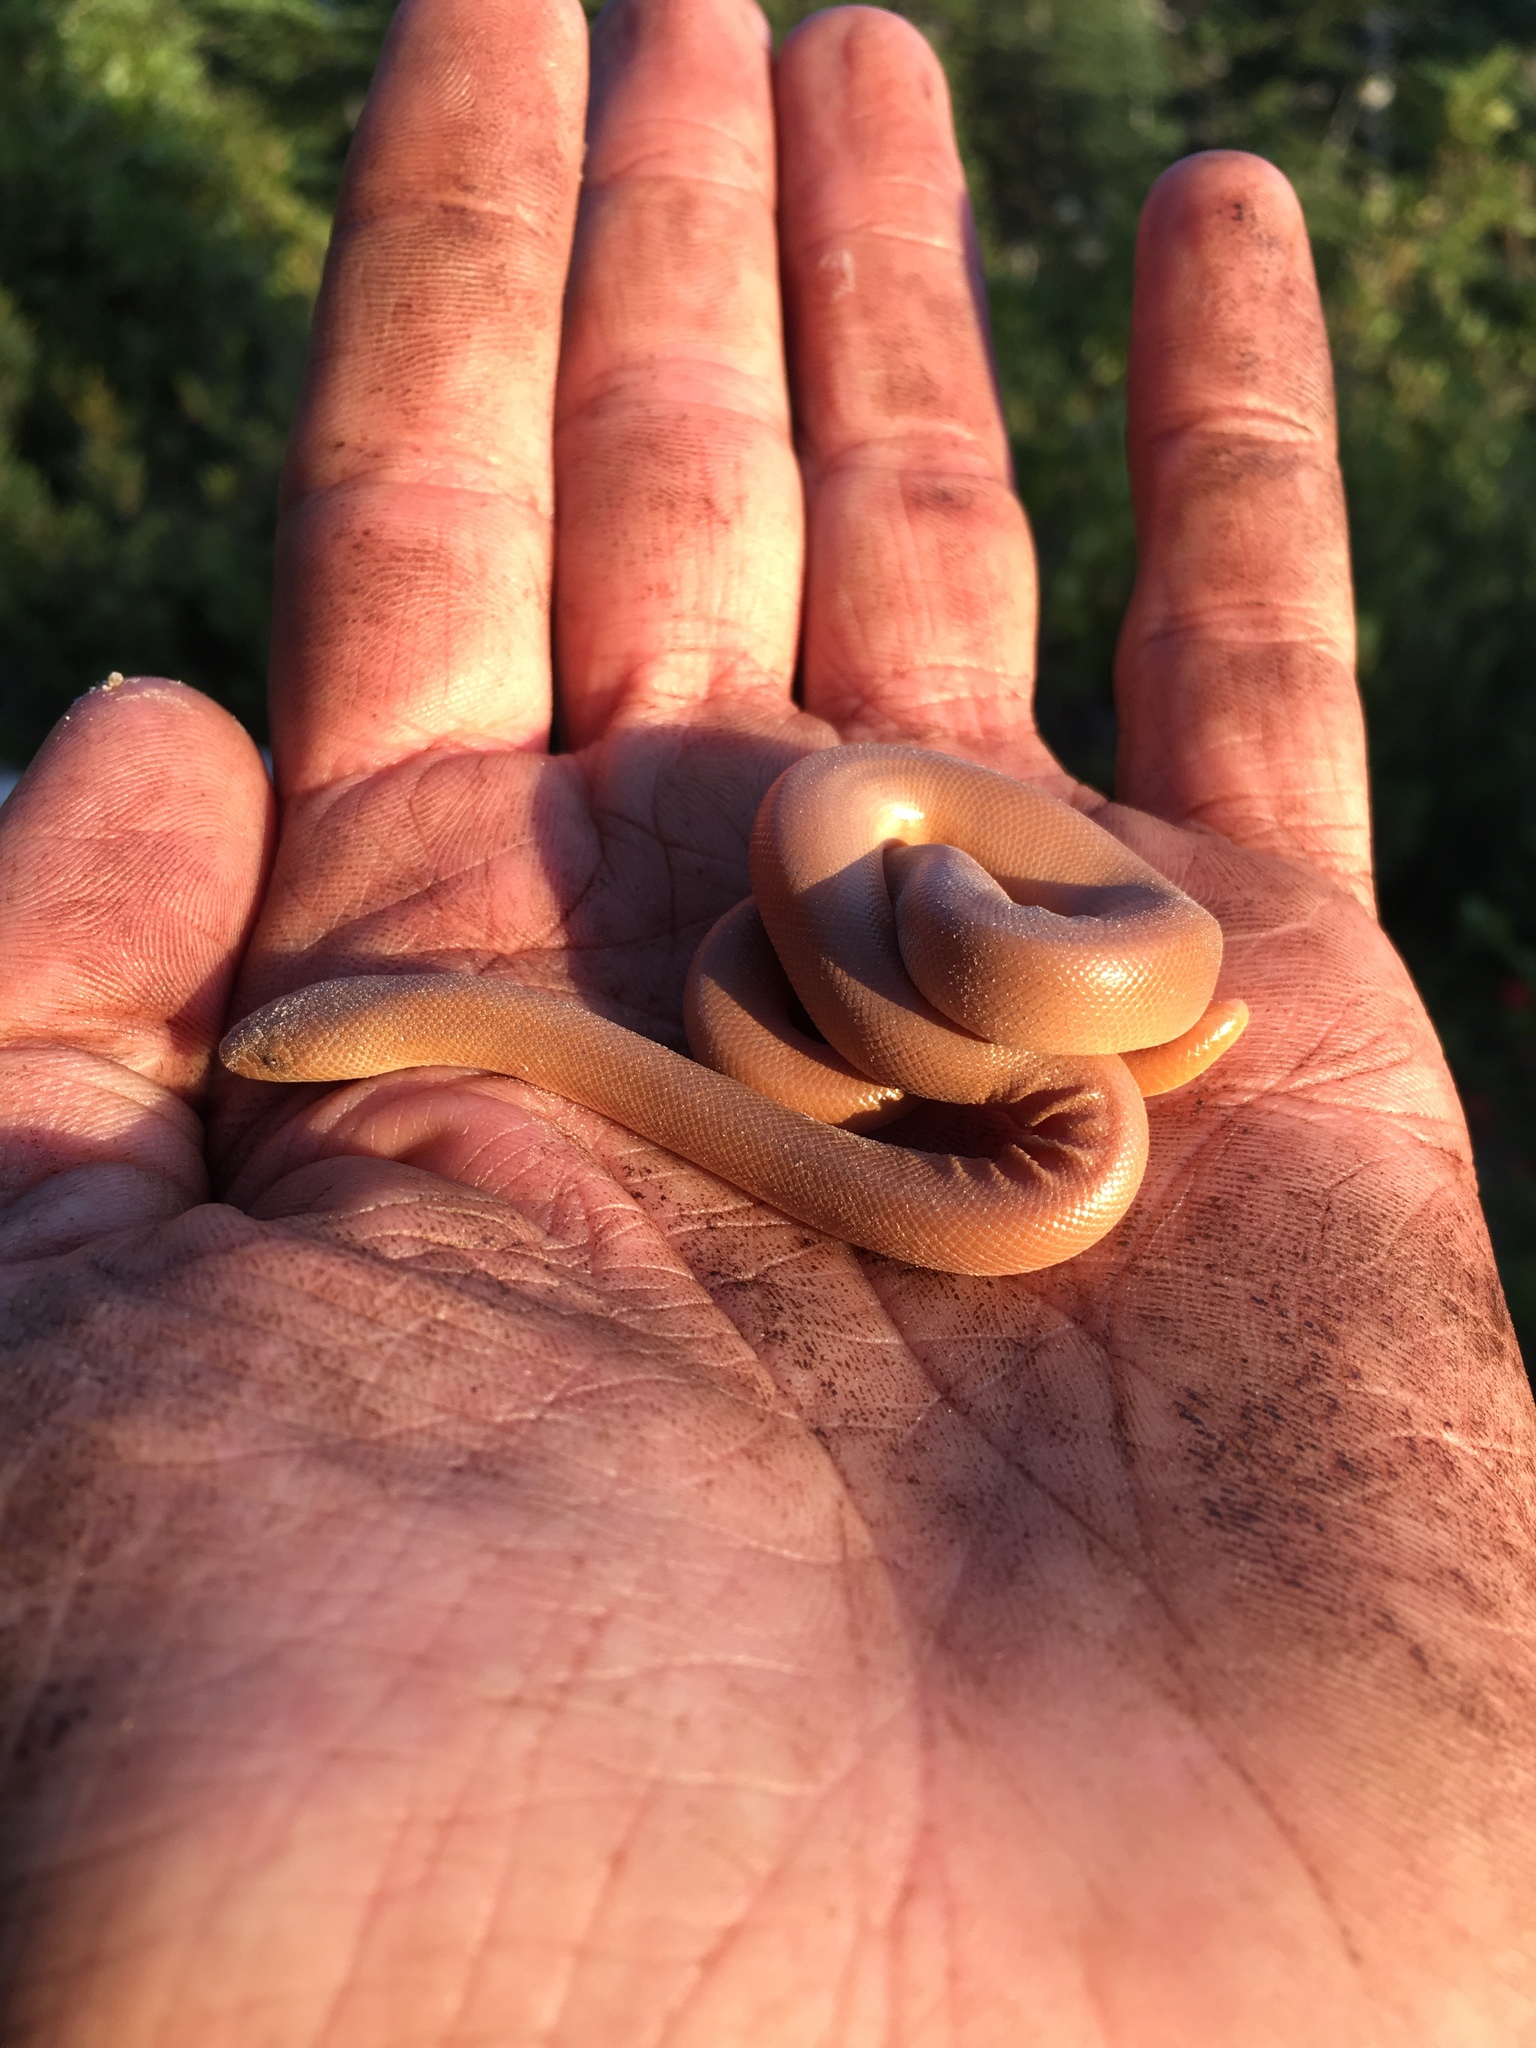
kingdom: Animalia
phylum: Chordata
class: Squamata
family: Boidae
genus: Charina
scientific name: Charina bottae
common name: Northern rubber boa
